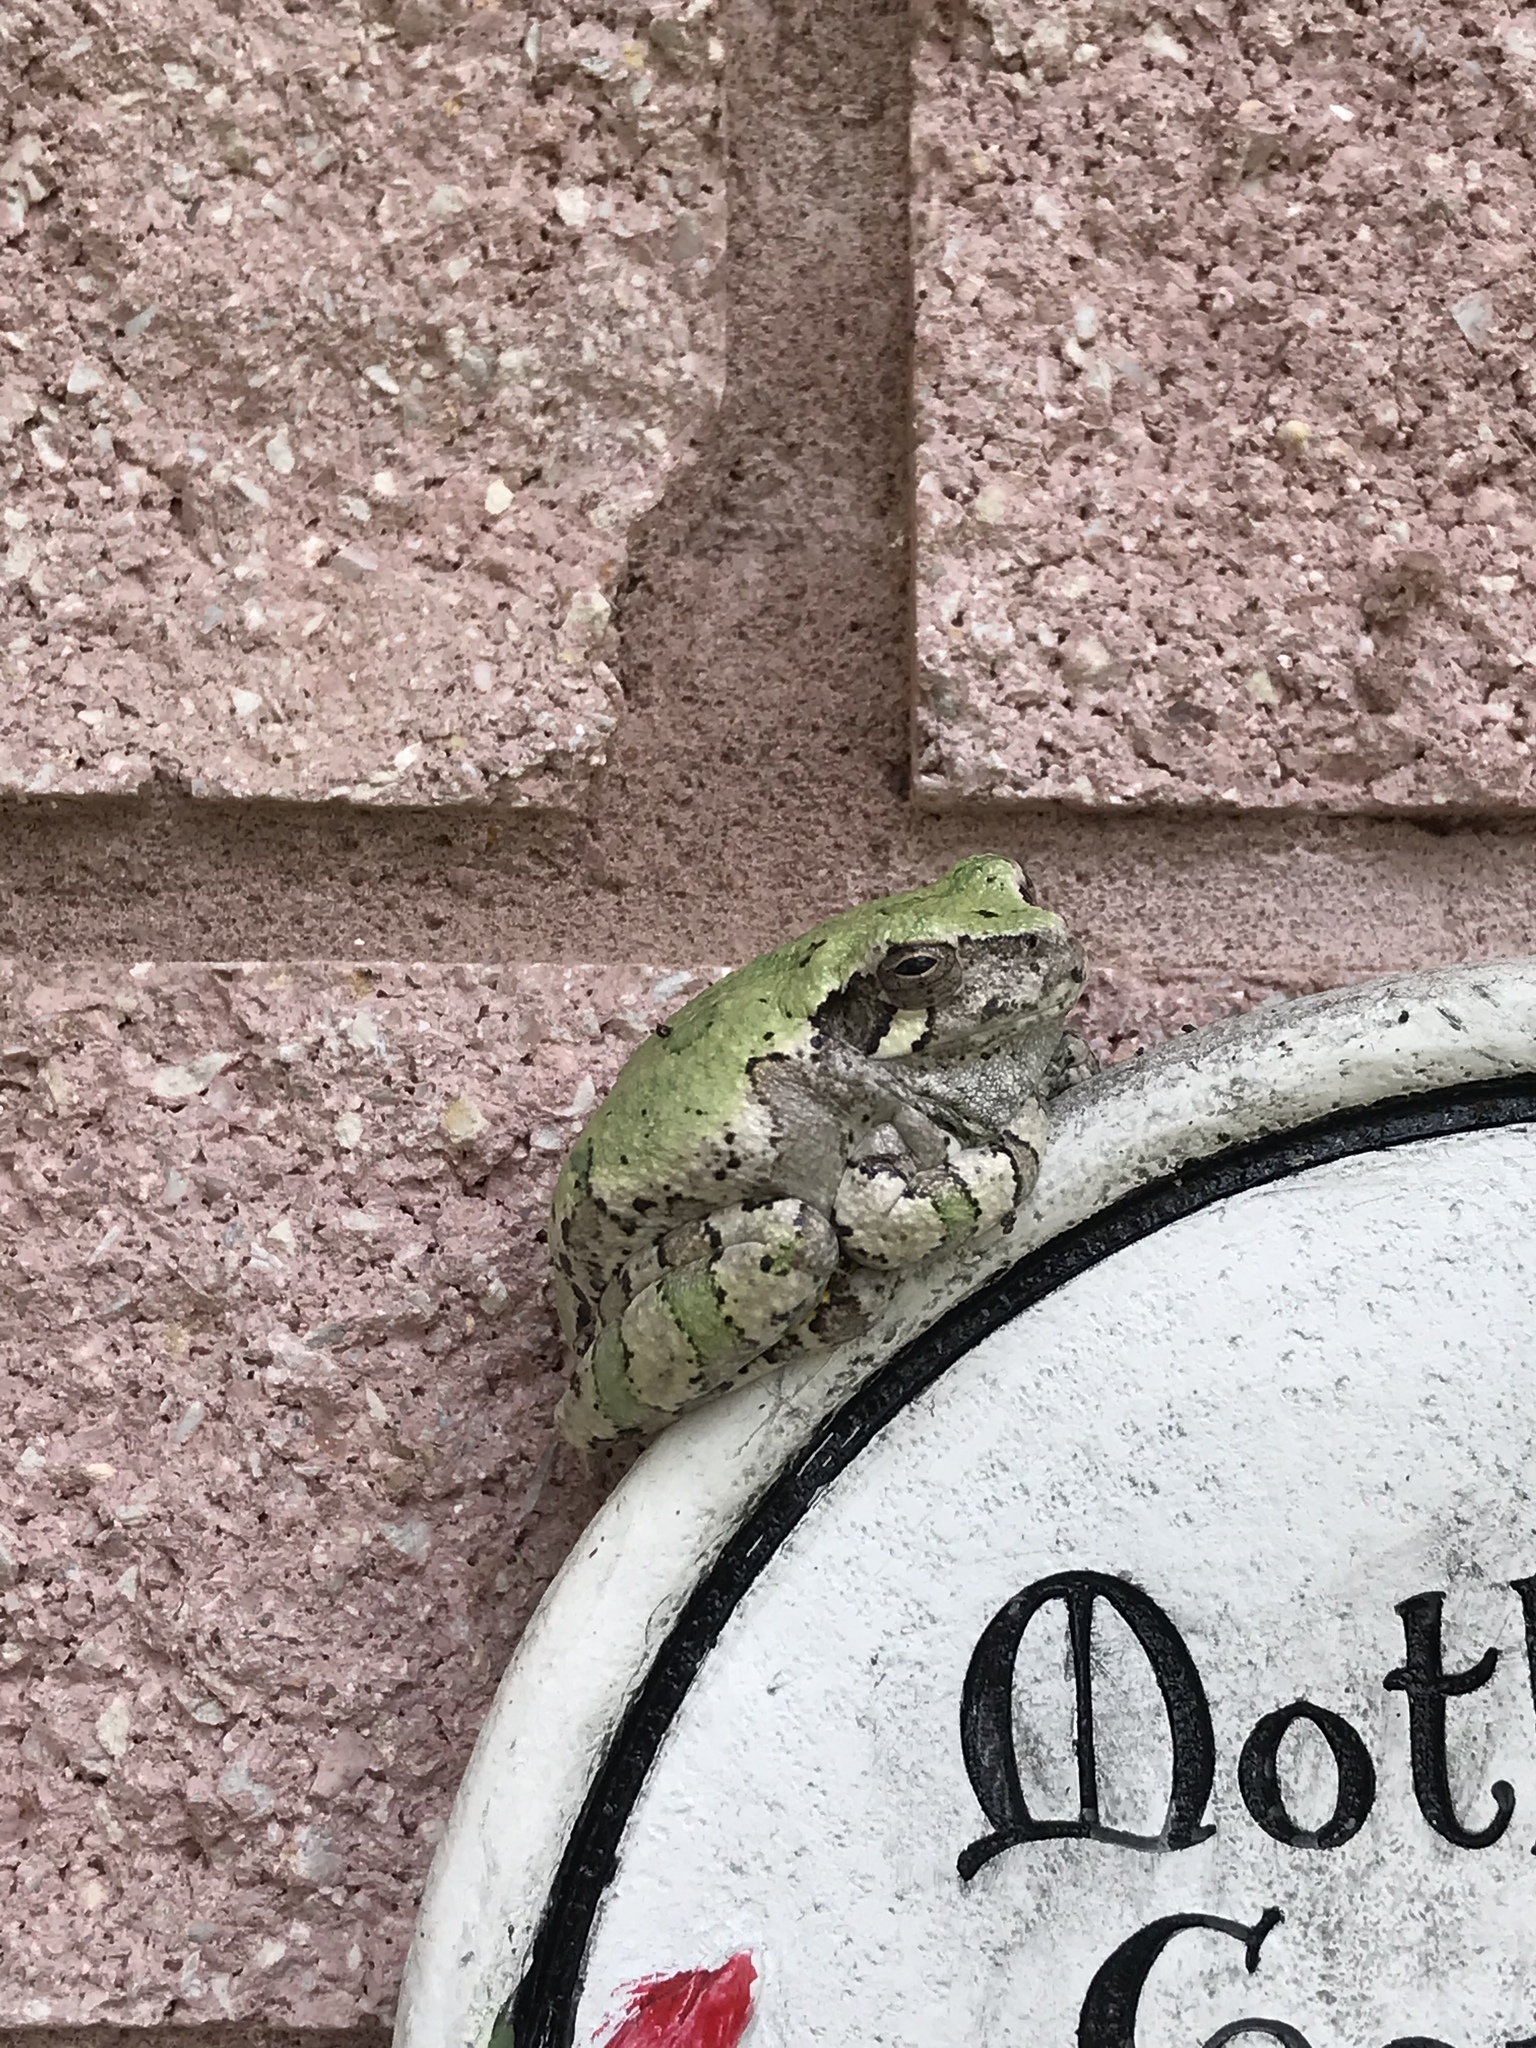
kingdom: Animalia
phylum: Chordata
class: Amphibia
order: Anura
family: Hylidae
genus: Dryophytes
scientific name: Dryophytes chrysoscelis
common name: Cope's gray treefrog
